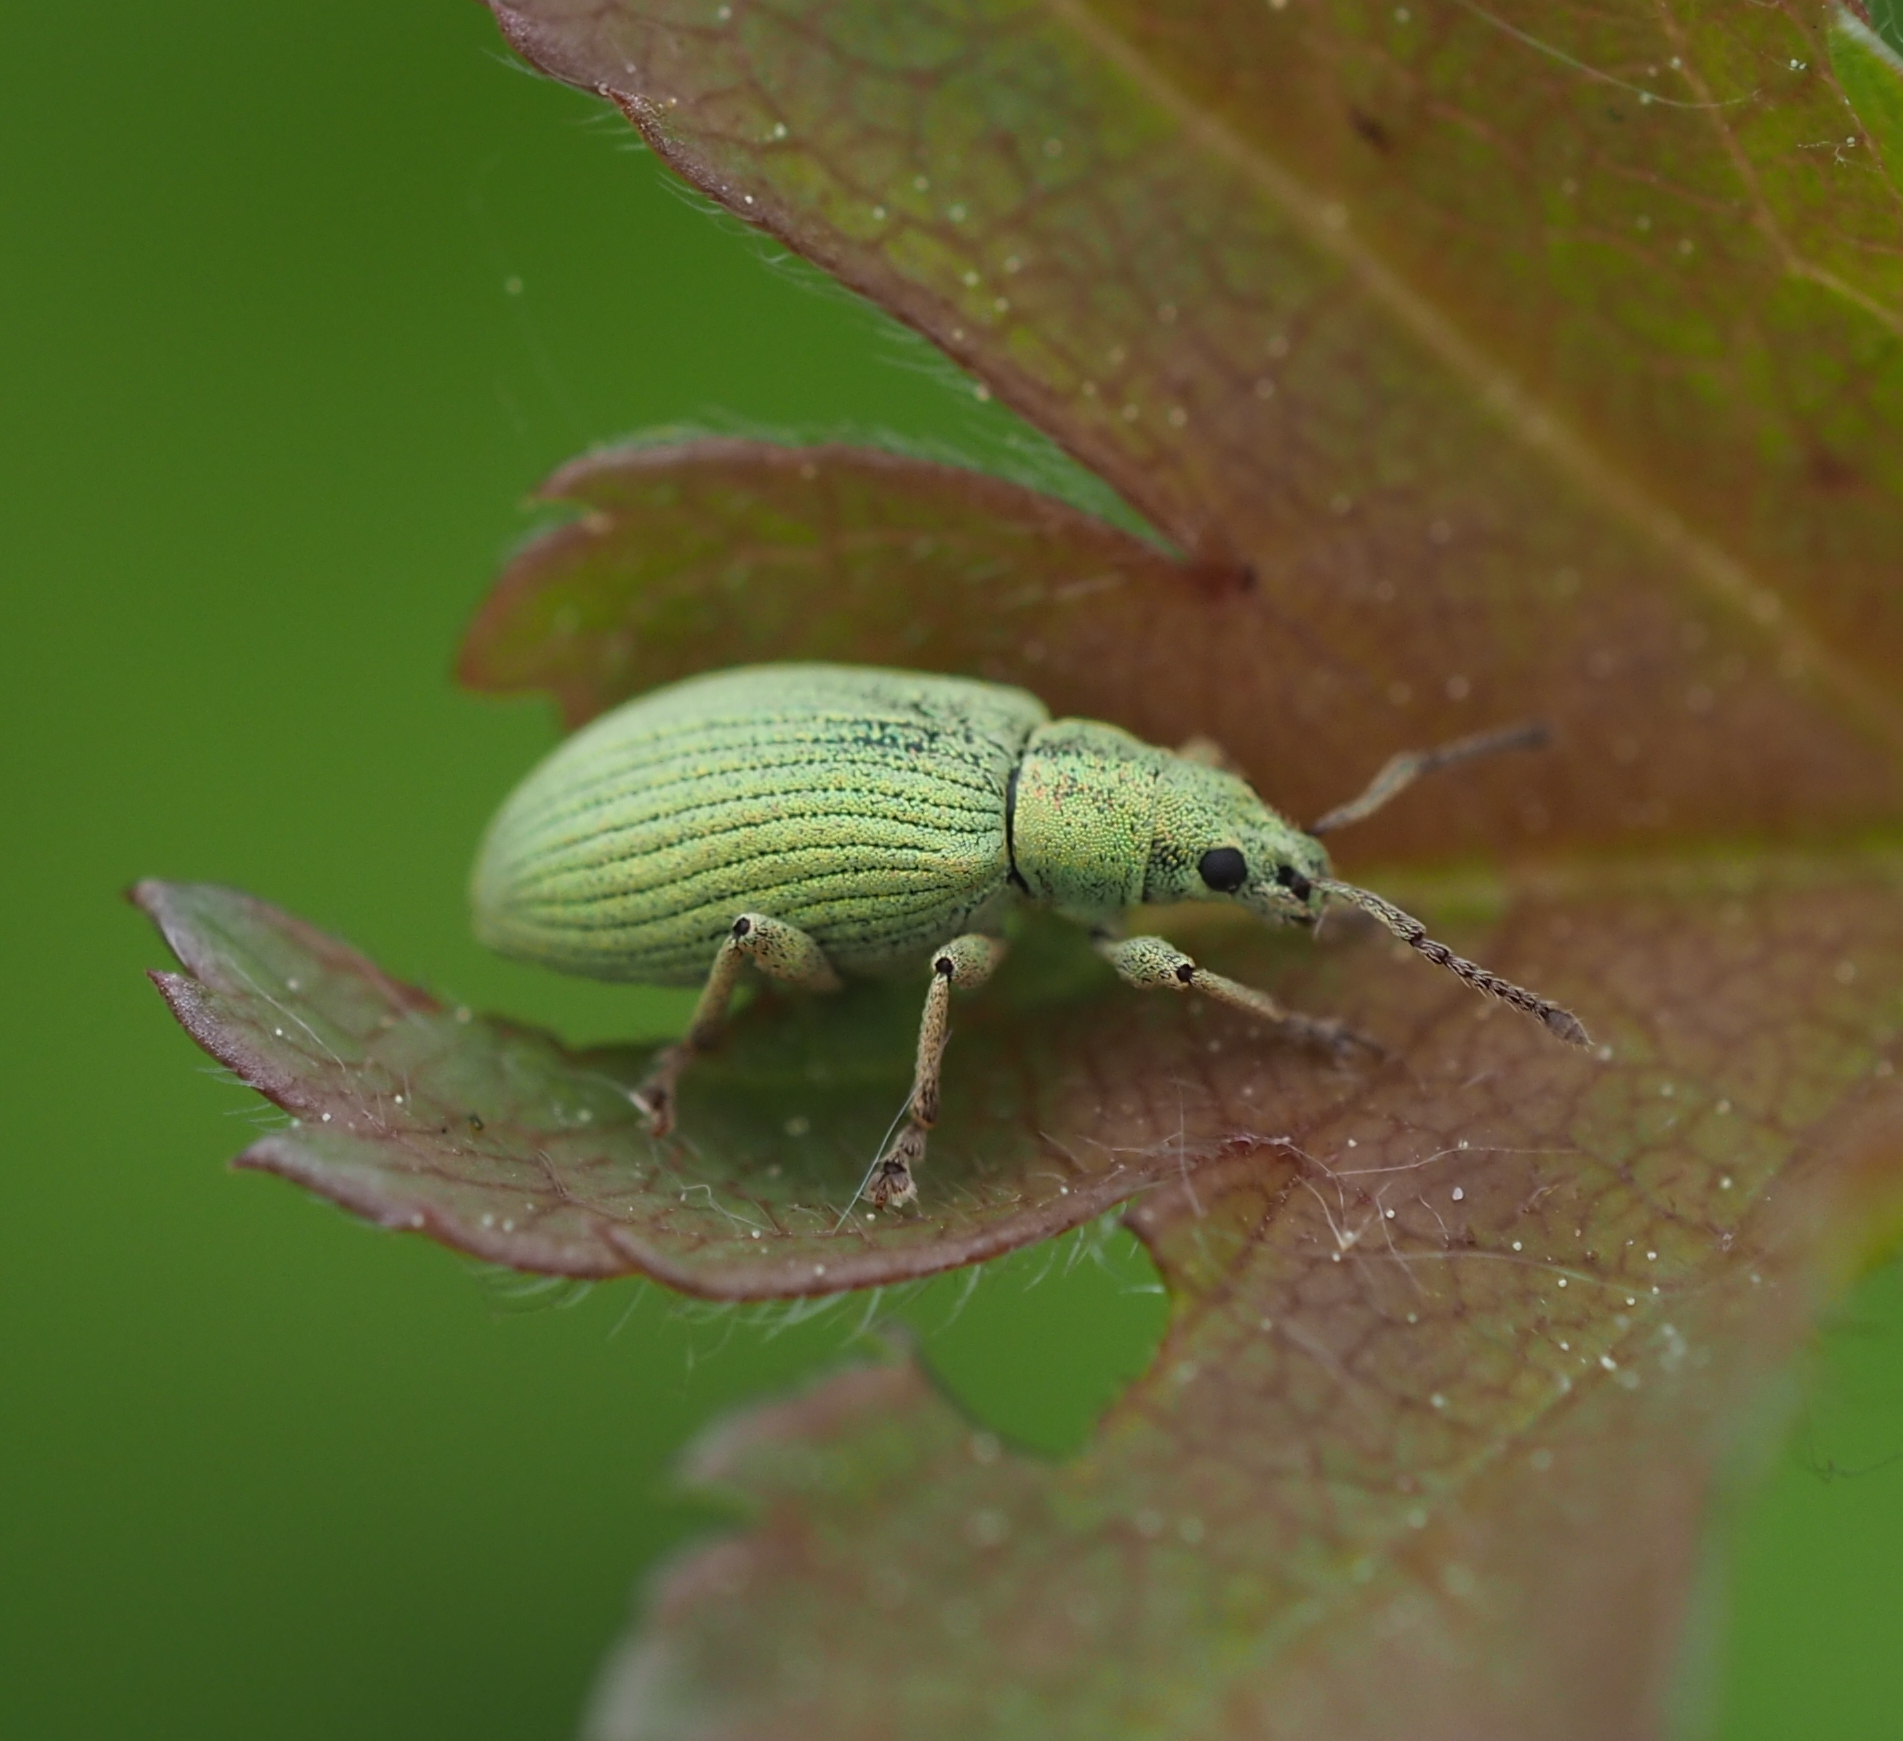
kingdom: Animalia
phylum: Arthropoda
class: Insecta
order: Coleoptera
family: Curculionidae
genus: Phyllobius
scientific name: Phyllobius virideaeris
